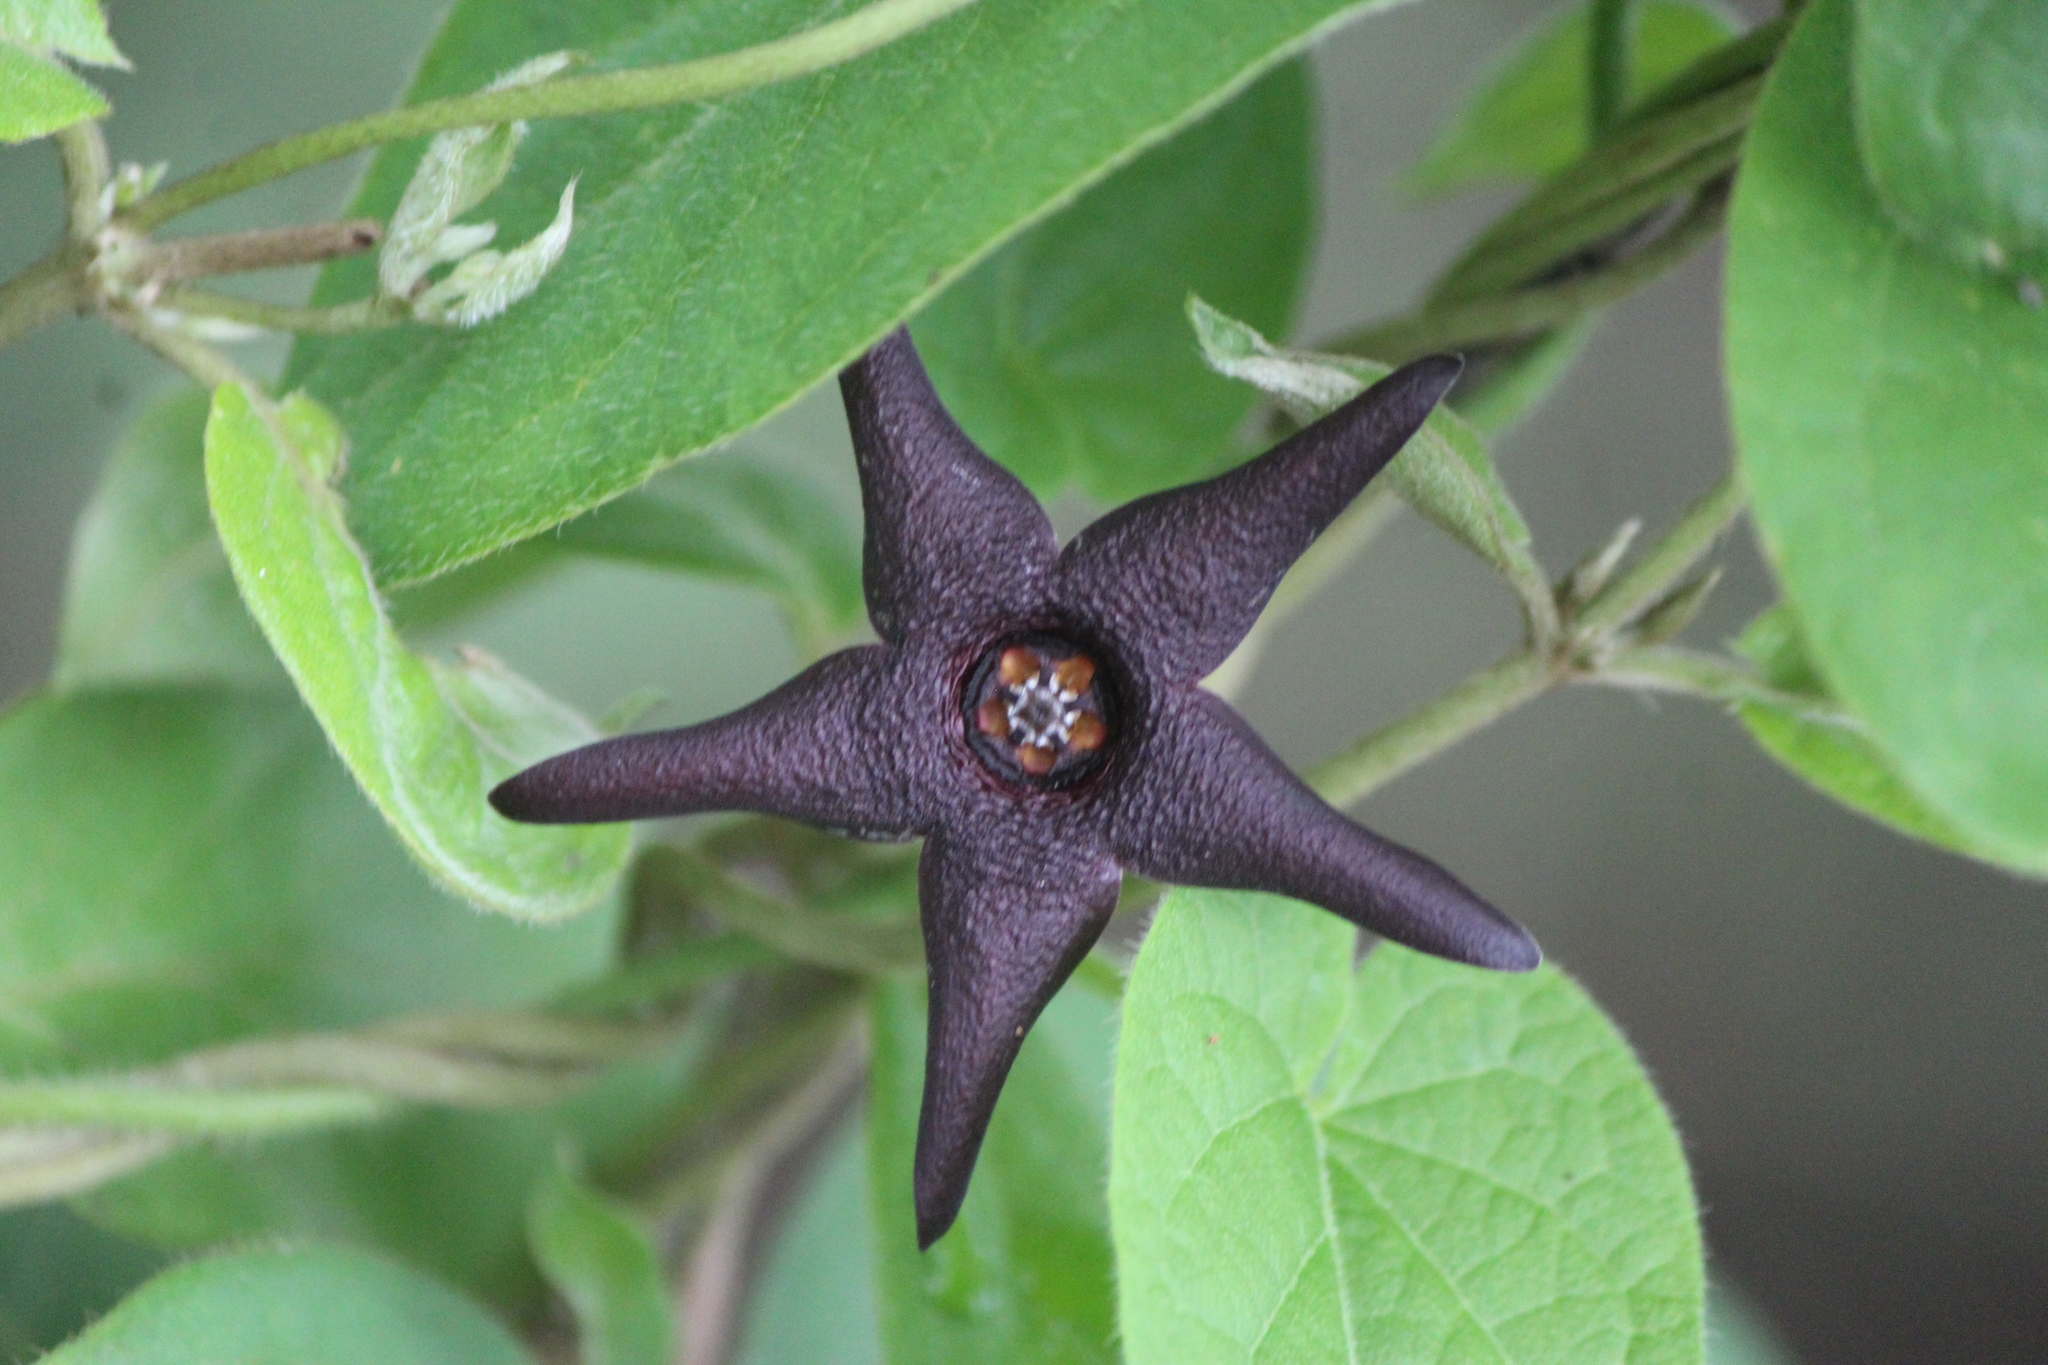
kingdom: Plantae
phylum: Tracheophyta
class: Magnoliopsida
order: Gentianales
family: Apocynaceae
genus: Matelea
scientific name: Matelea pilosa
